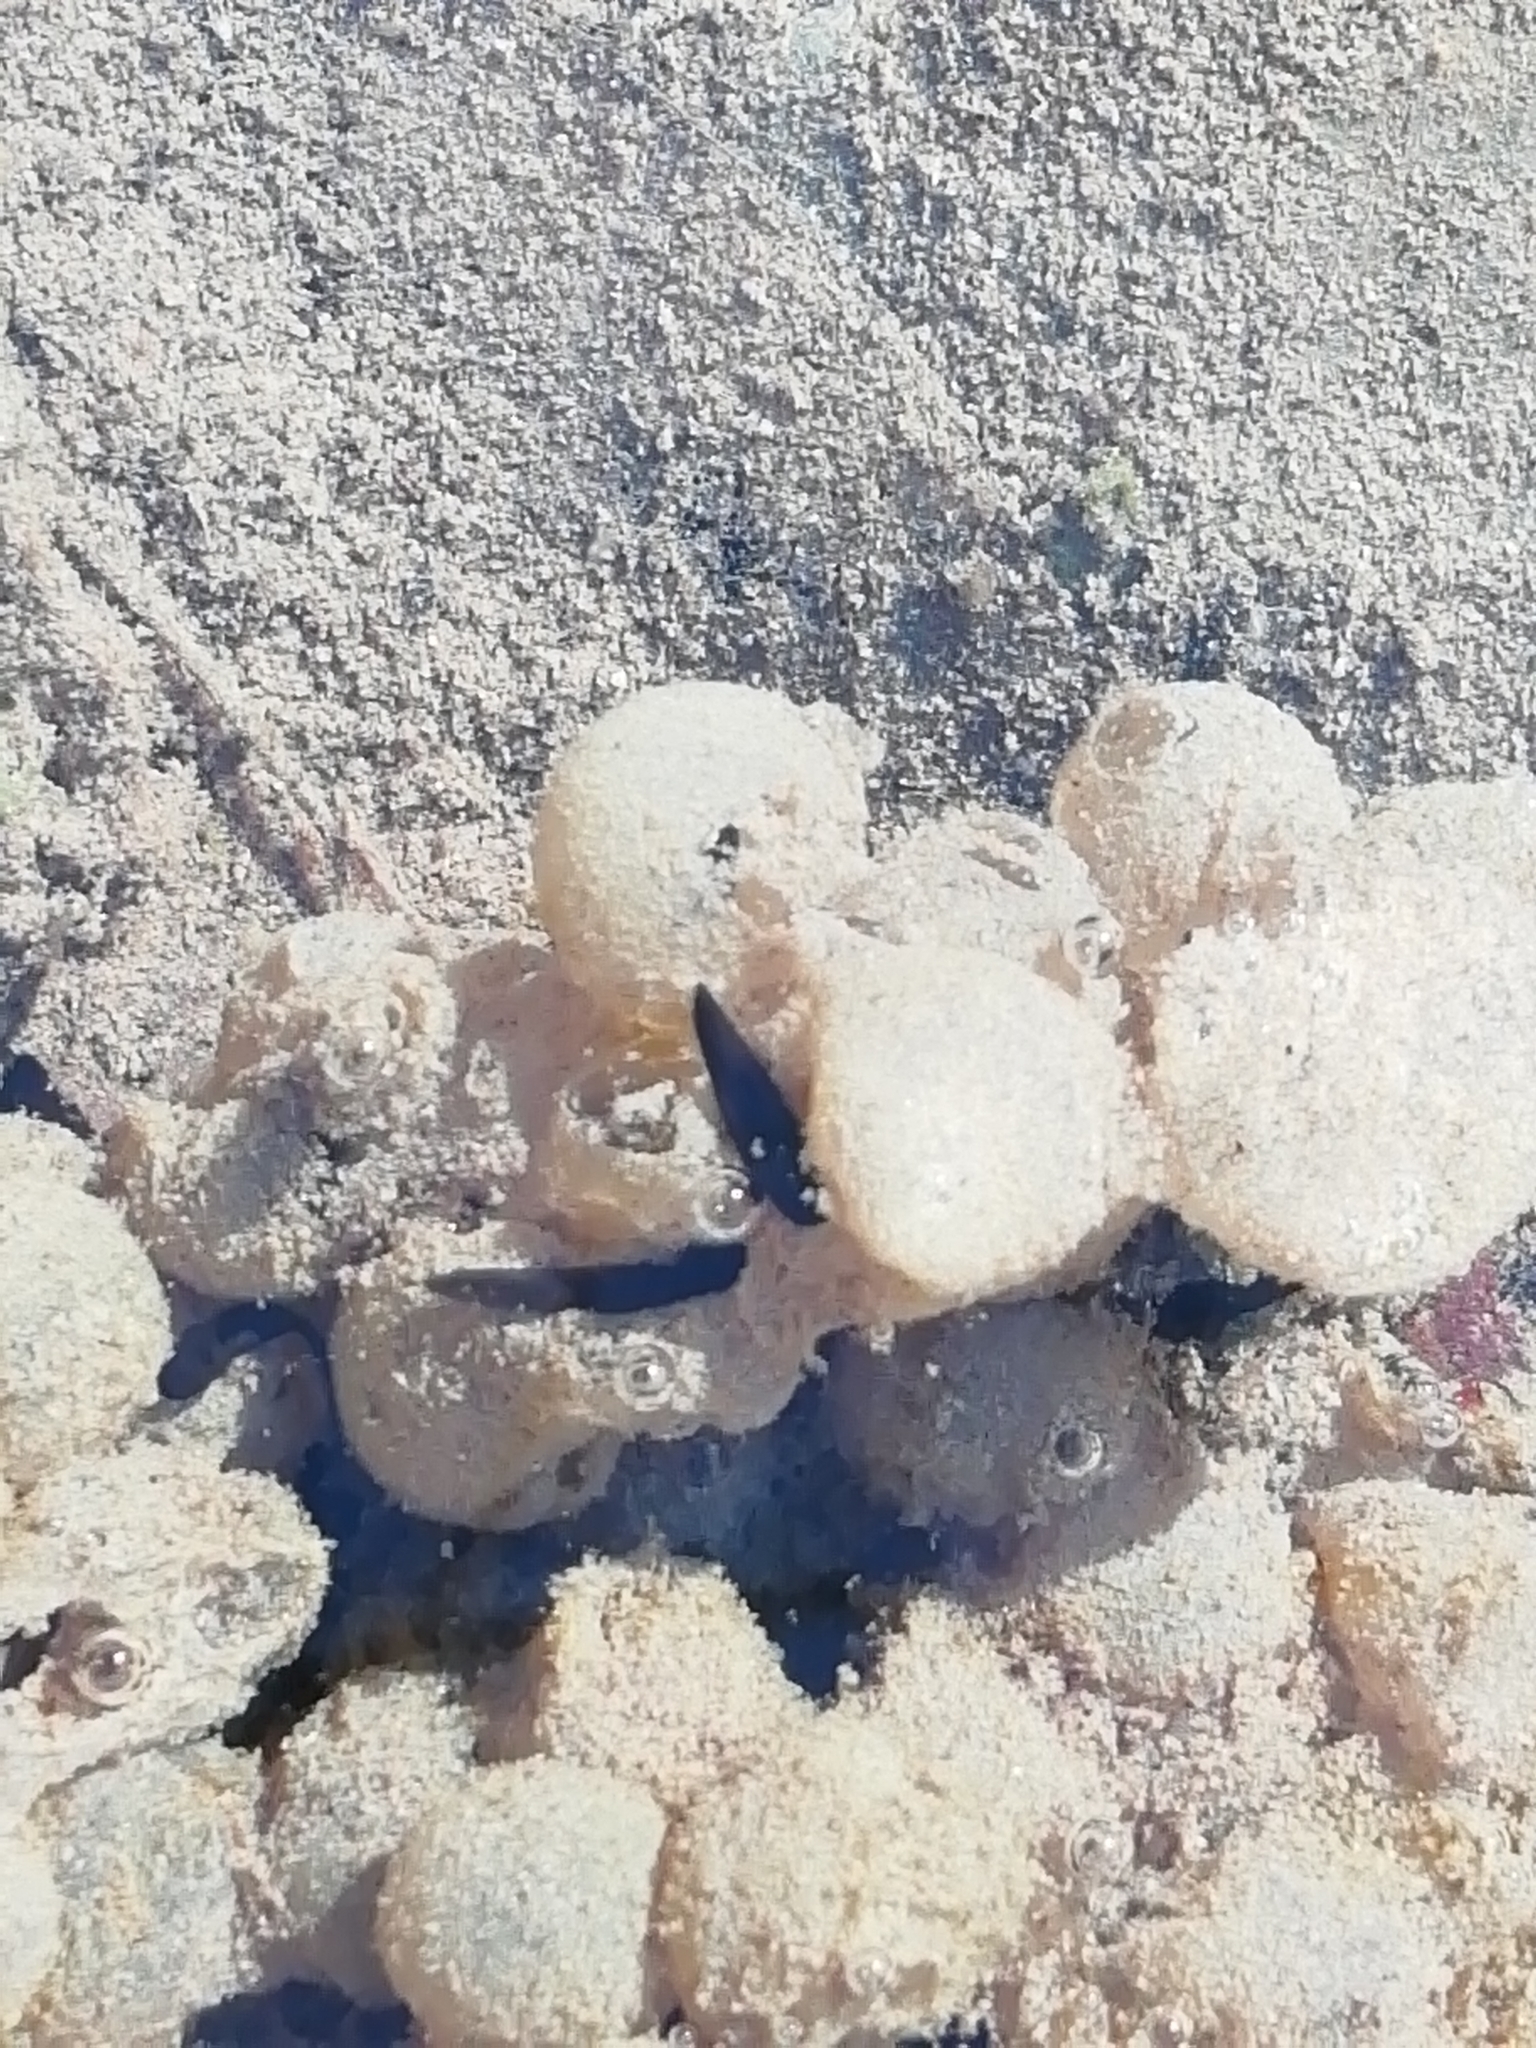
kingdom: Animalia
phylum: Chordata
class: Amphibia
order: Anura
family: Ranidae
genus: Rana
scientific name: Rana temporaria
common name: Common frog
